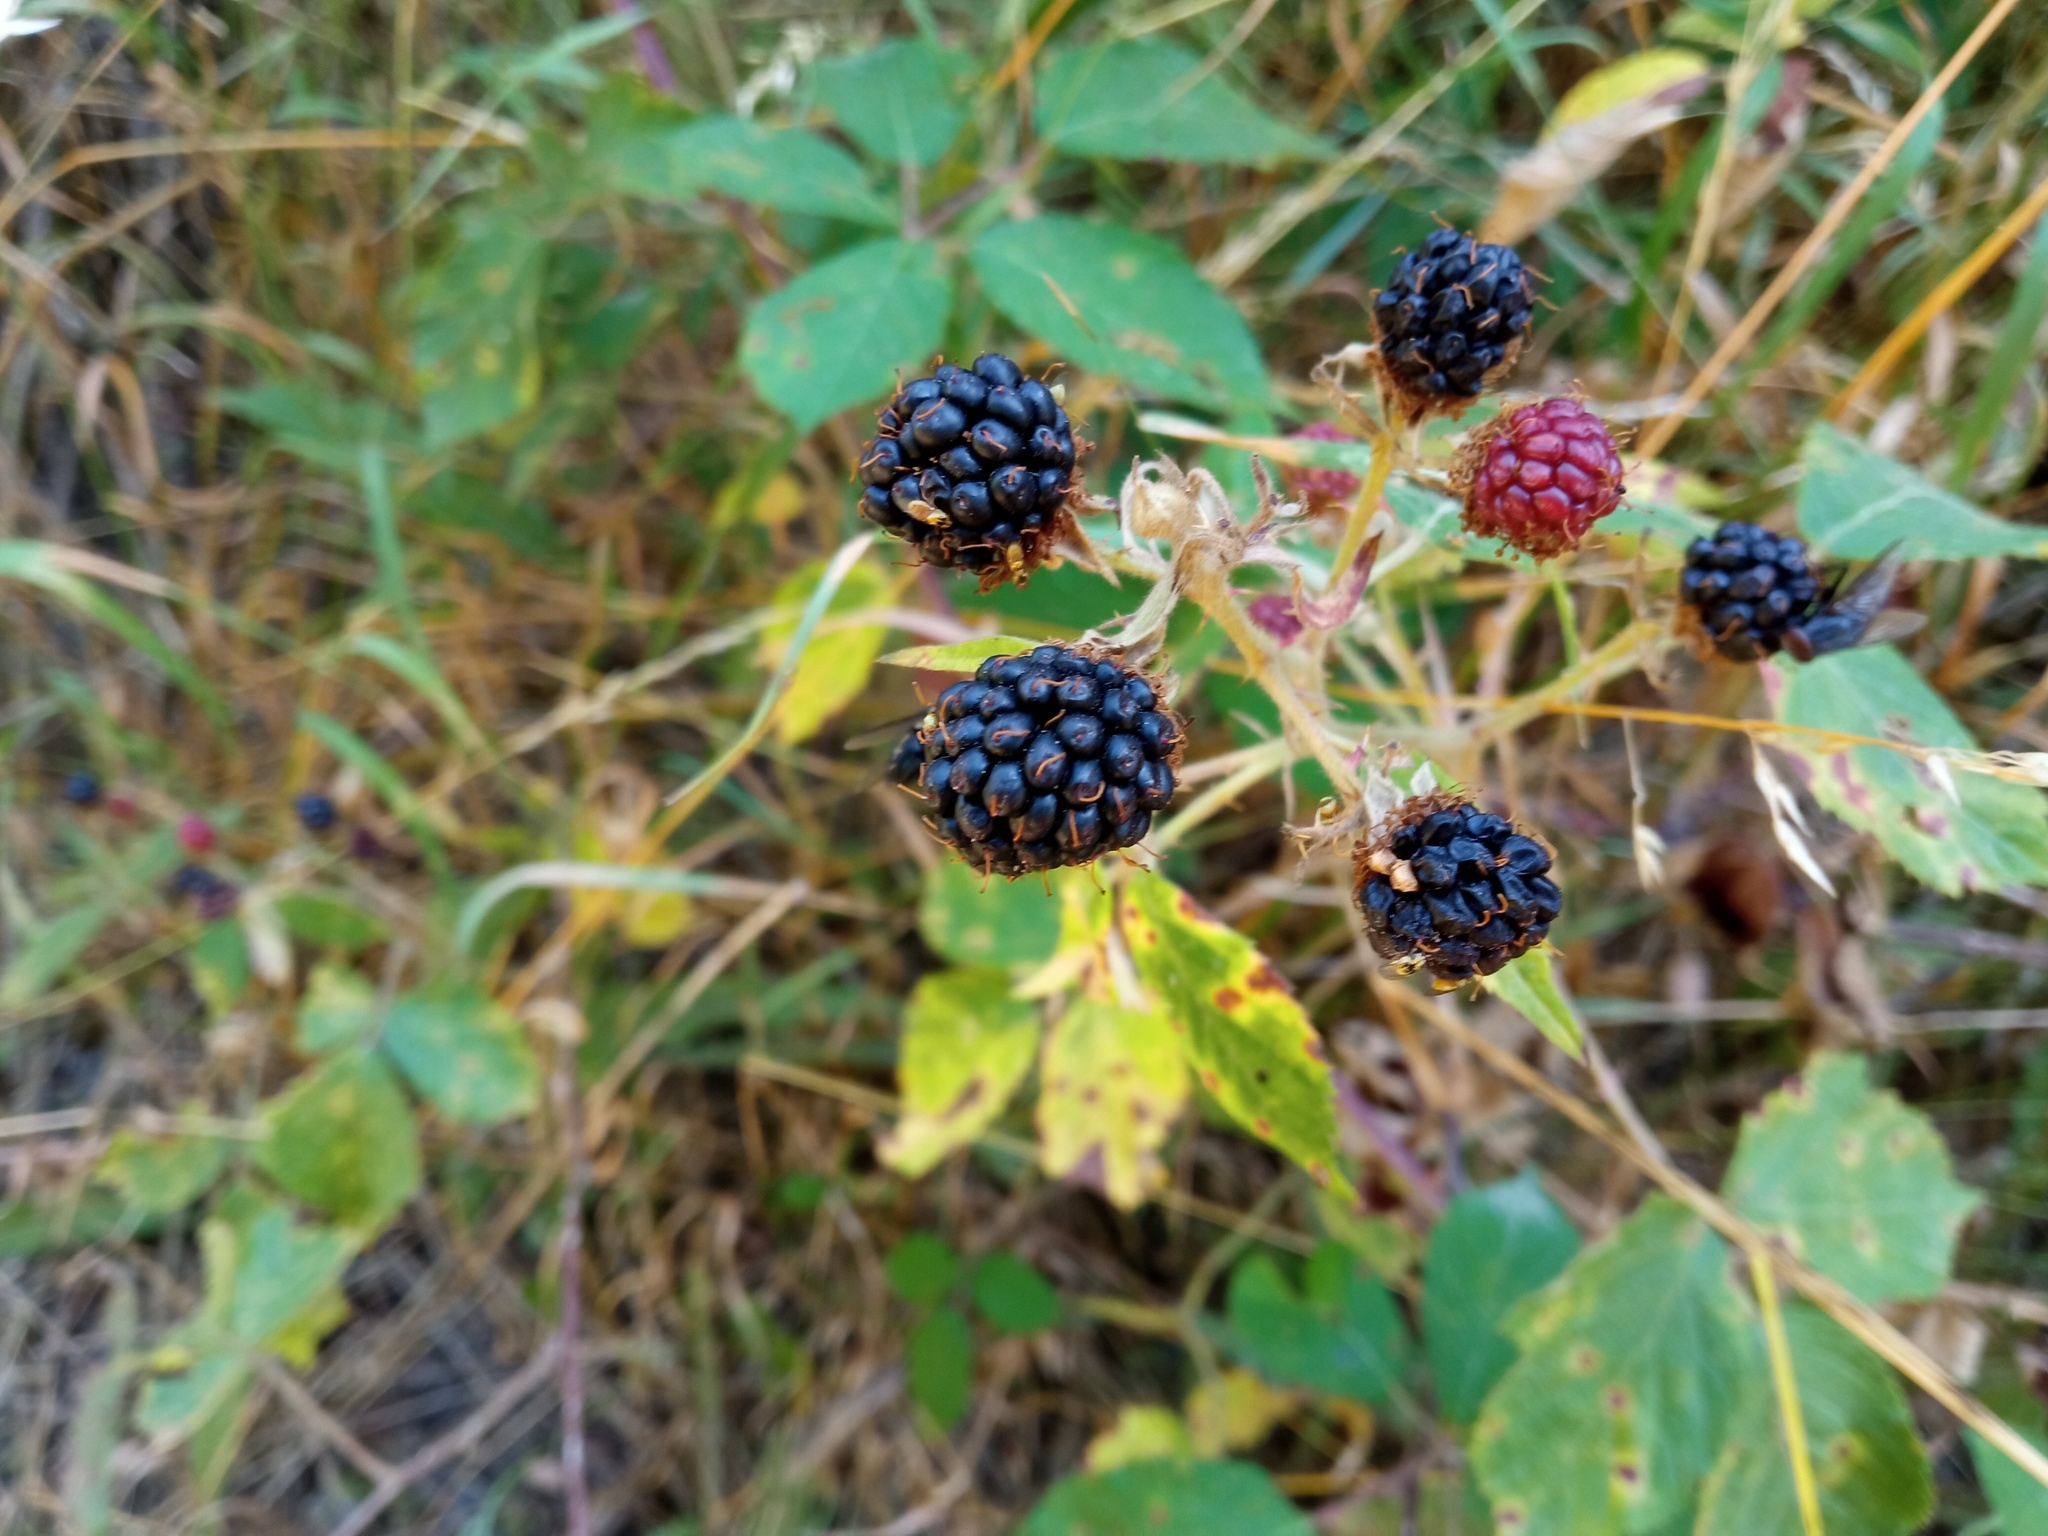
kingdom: Plantae
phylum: Tracheophyta
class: Magnoliopsida
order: Rosales
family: Rosaceae
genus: Rubus
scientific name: Rubus ulmifolius
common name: Elmleaf blackberry
